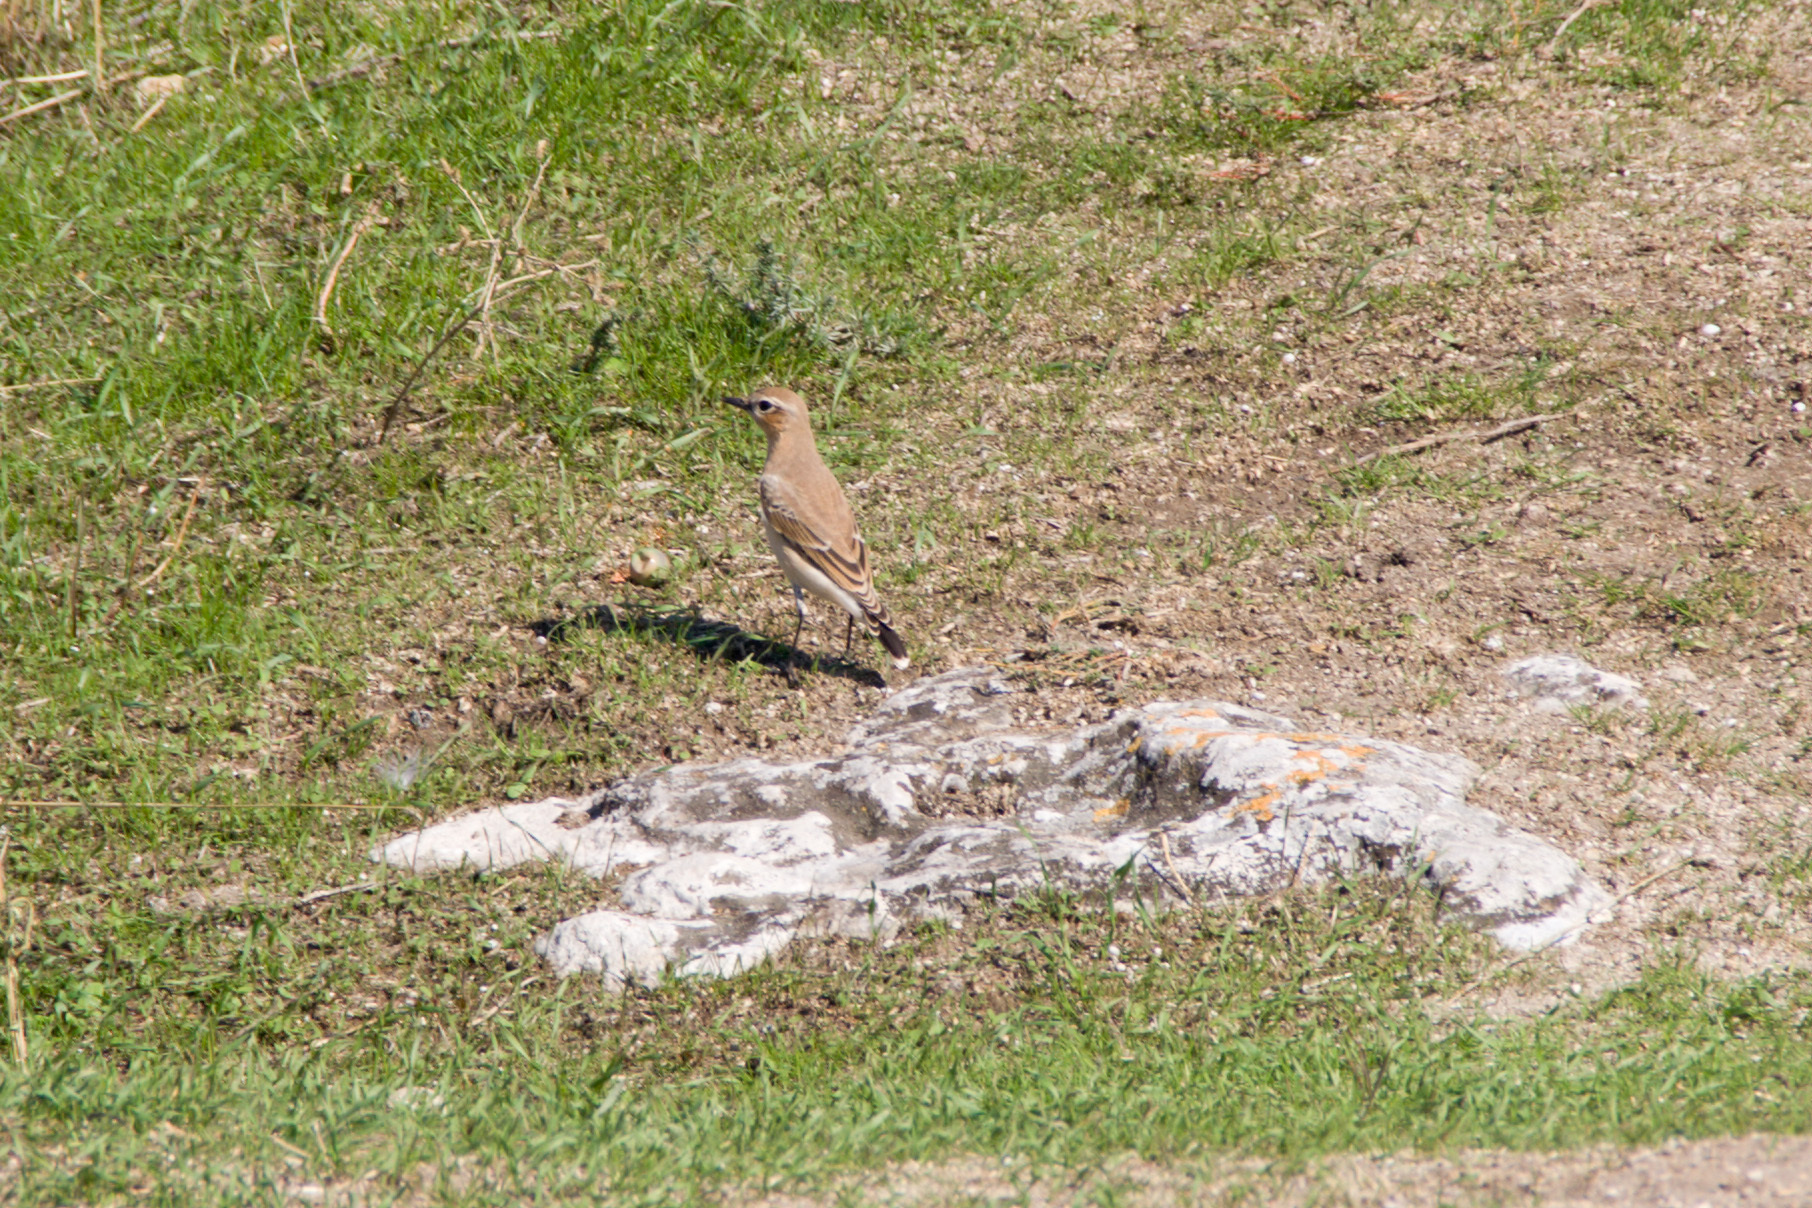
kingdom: Animalia
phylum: Chordata
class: Aves
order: Passeriformes
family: Muscicapidae
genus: Oenanthe
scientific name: Oenanthe oenanthe
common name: Northern wheatear
